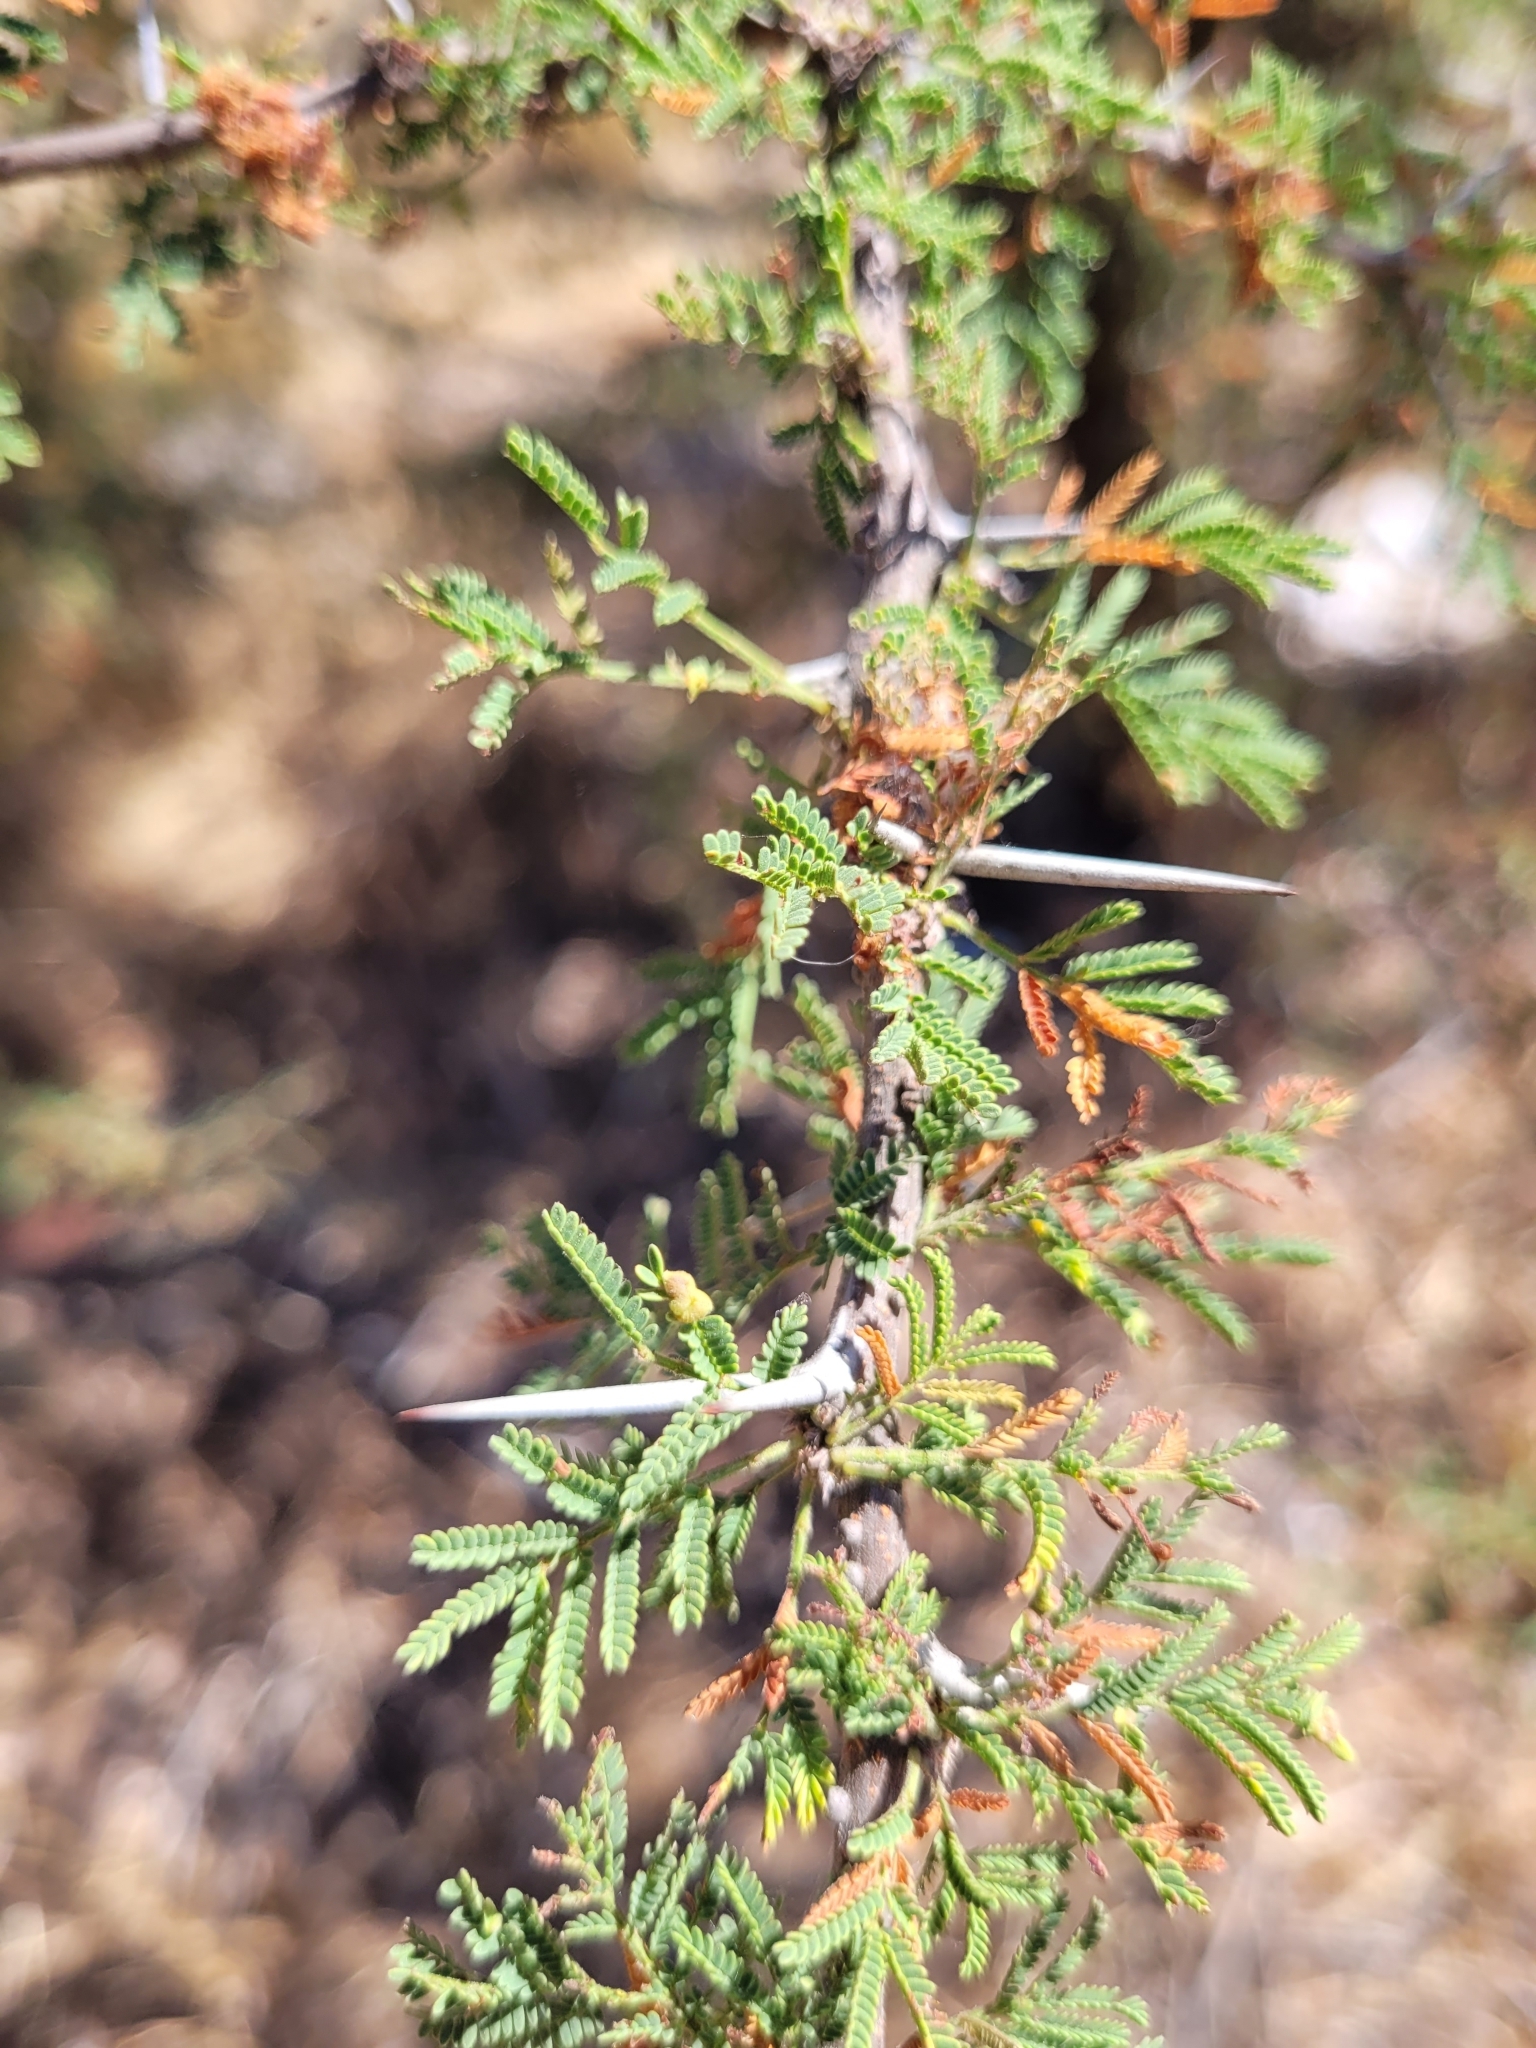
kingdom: Plantae
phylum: Tracheophyta
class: Magnoliopsida
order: Fabales
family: Fabaceae
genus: Vachellia
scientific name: Vachellia caven
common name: Roman cassie
